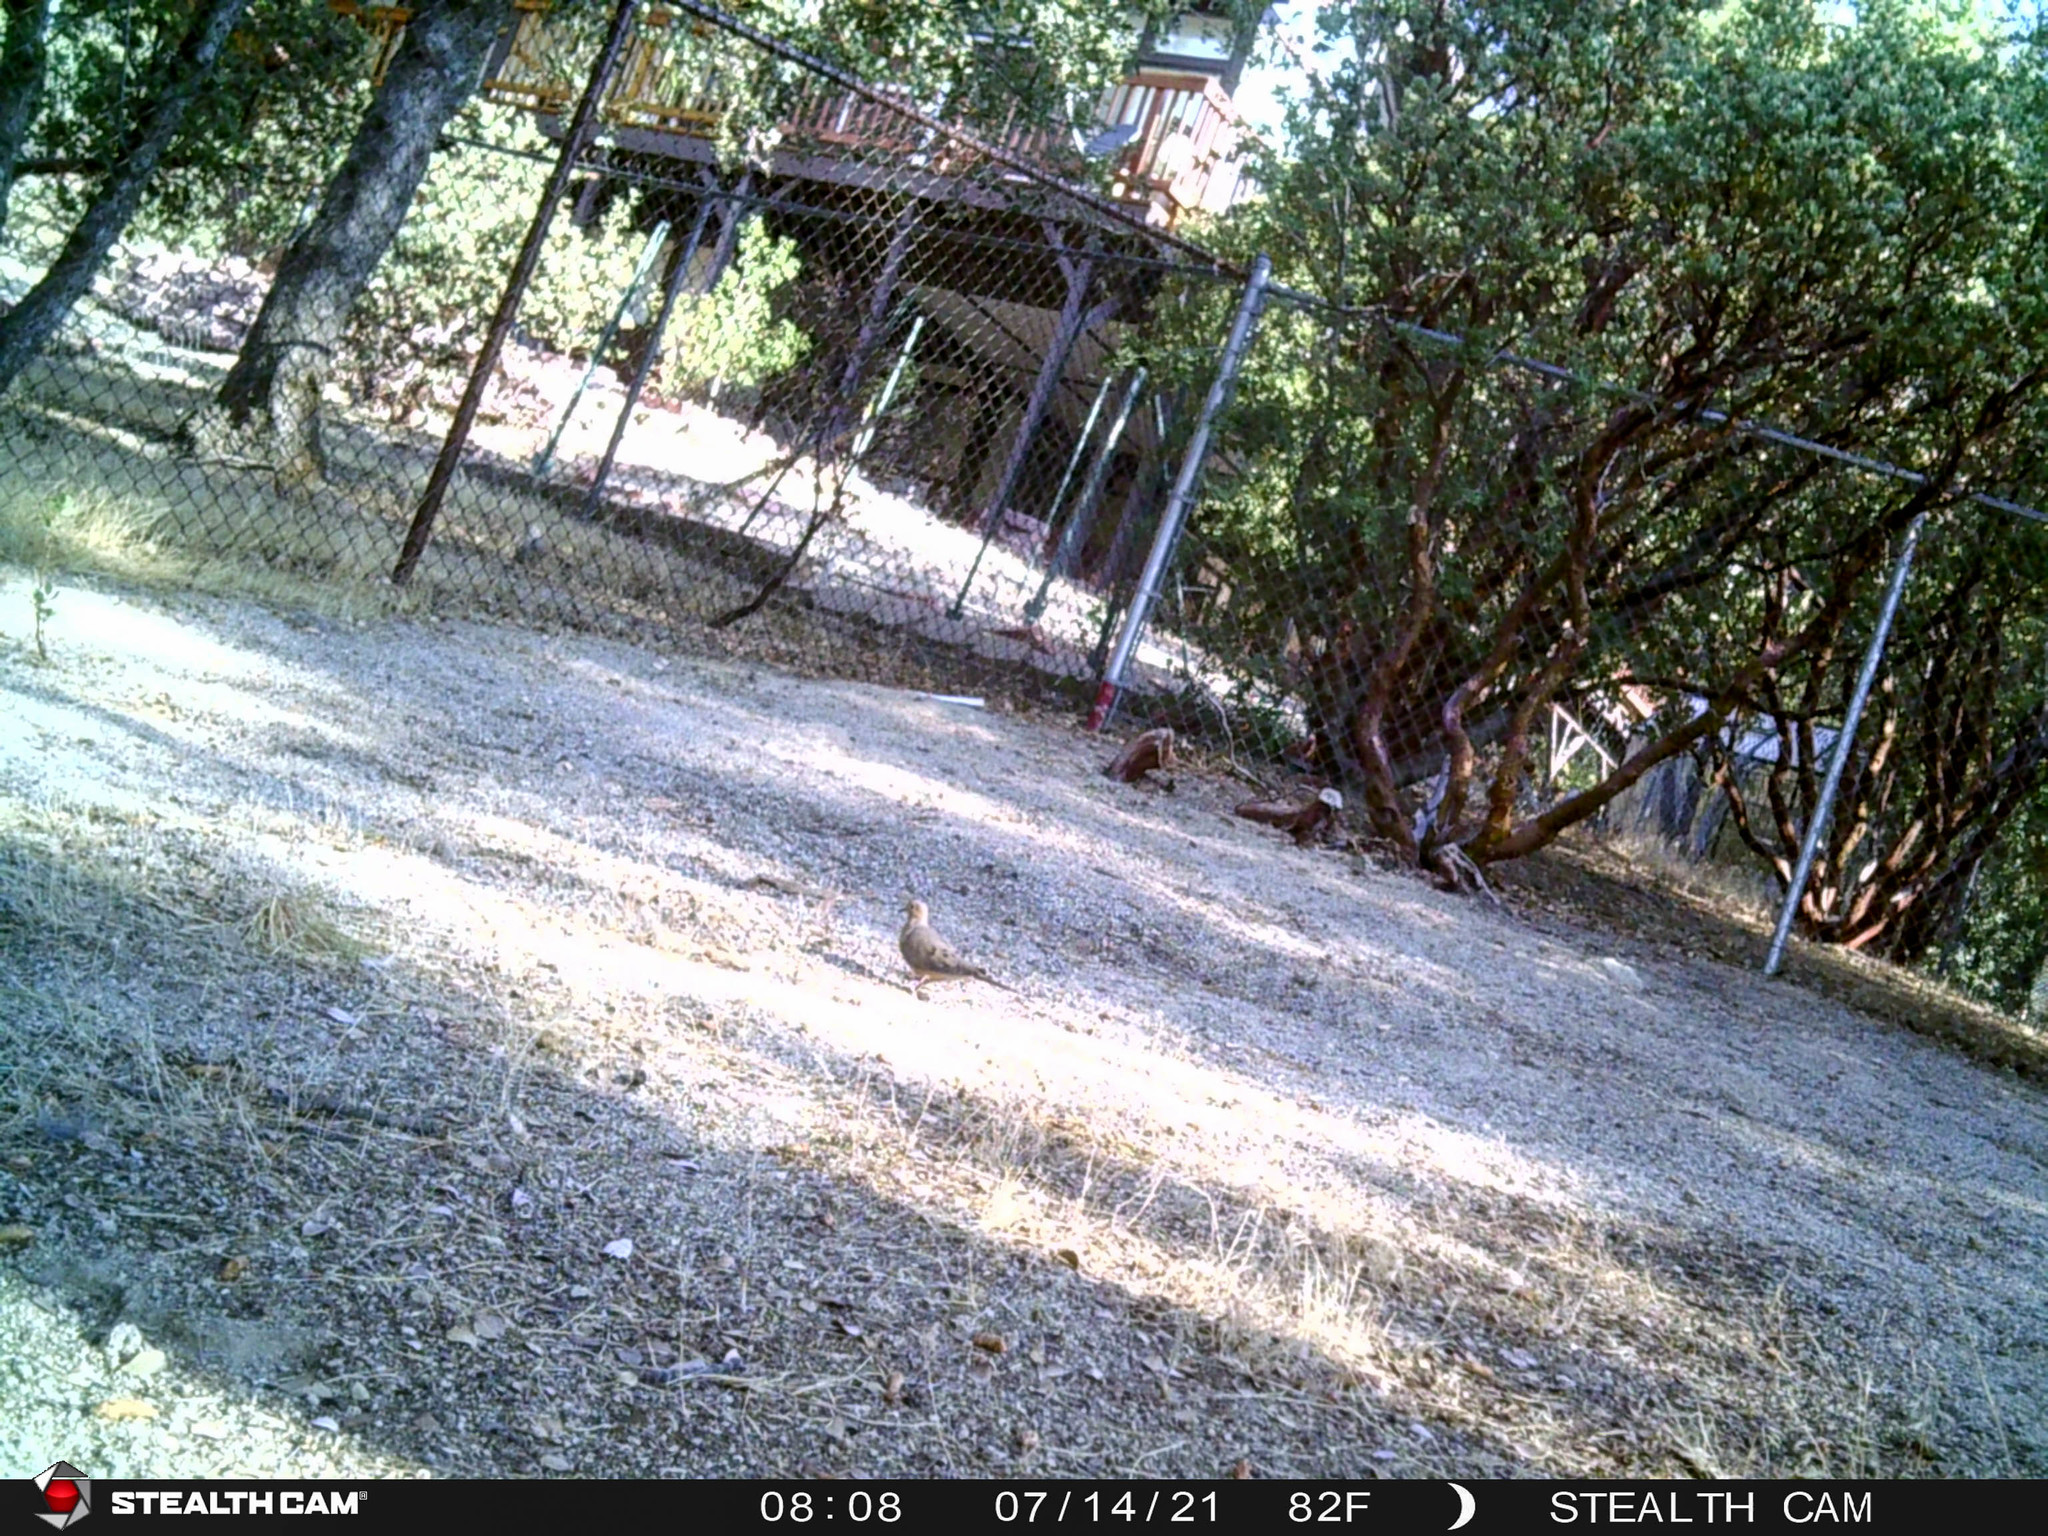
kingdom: Animalia
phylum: Chordata
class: Aves
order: Columbiformes
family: Columbidae
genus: Zenaida
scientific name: Zenaida macroura
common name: Mourning dove
